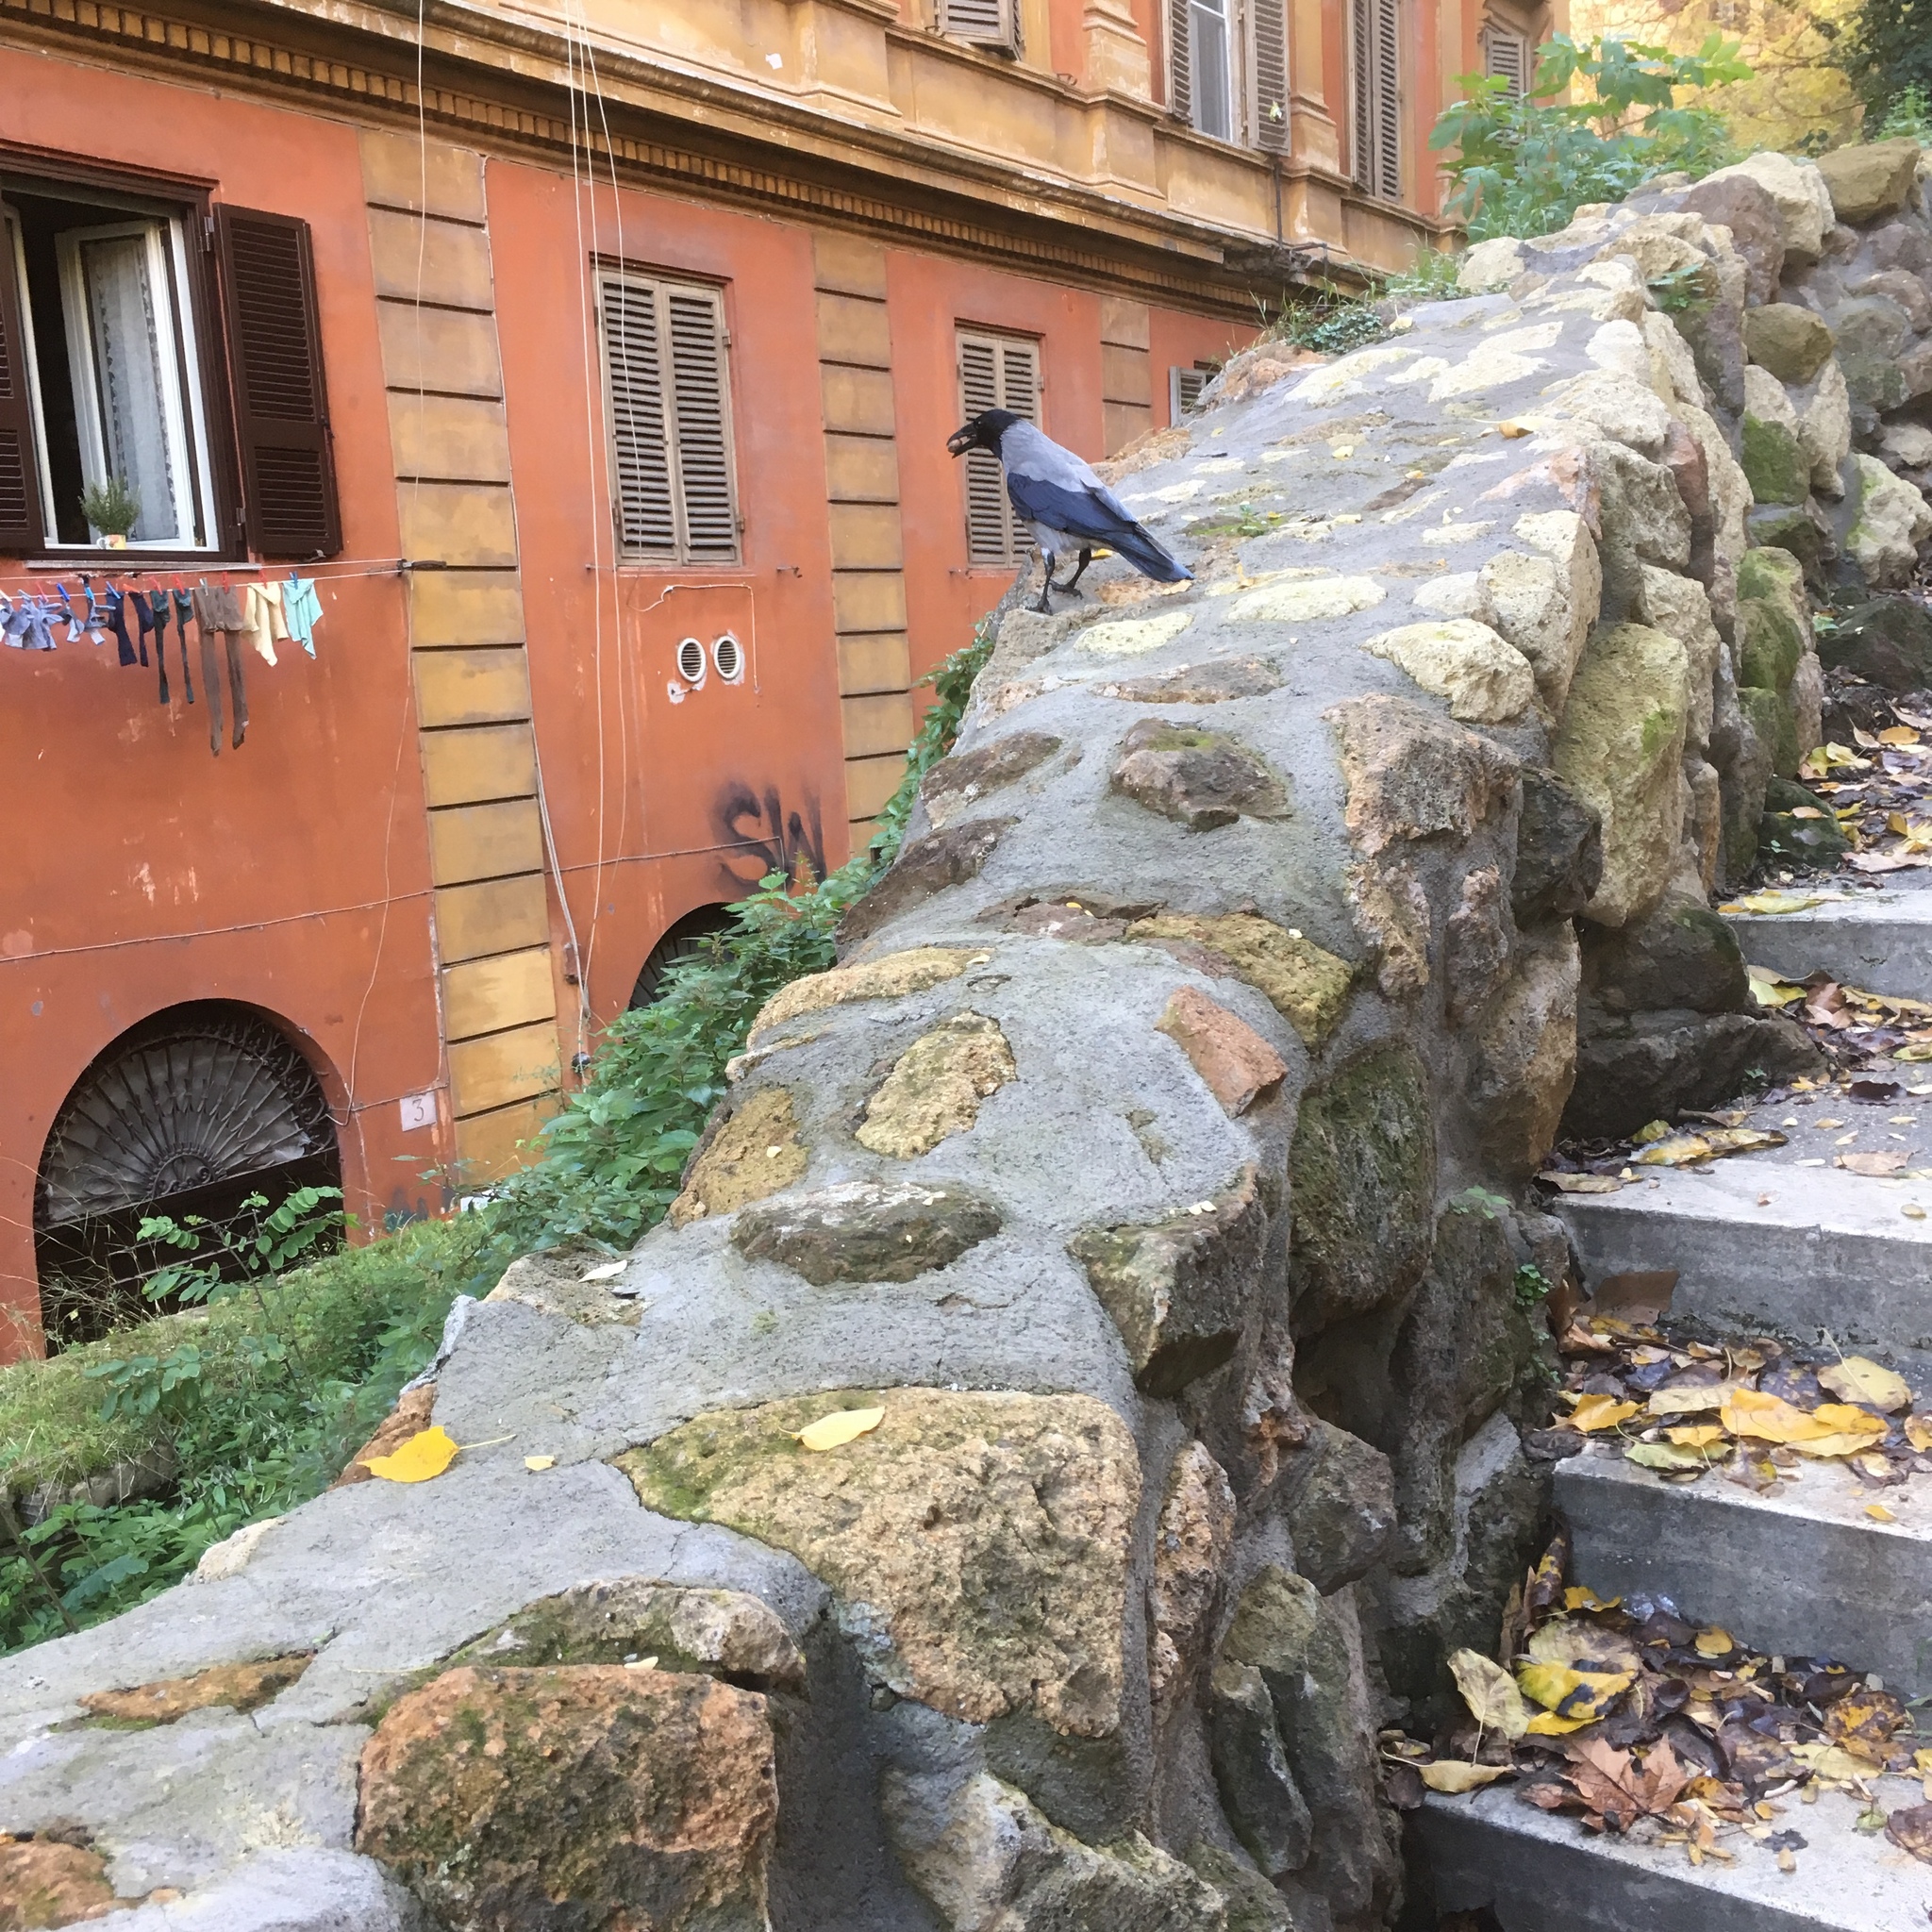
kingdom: Animalia
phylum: Chordata
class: Aves
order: Passeriformes
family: Corvidae
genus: Corvus
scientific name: Corvus cornix
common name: Hooded crow
